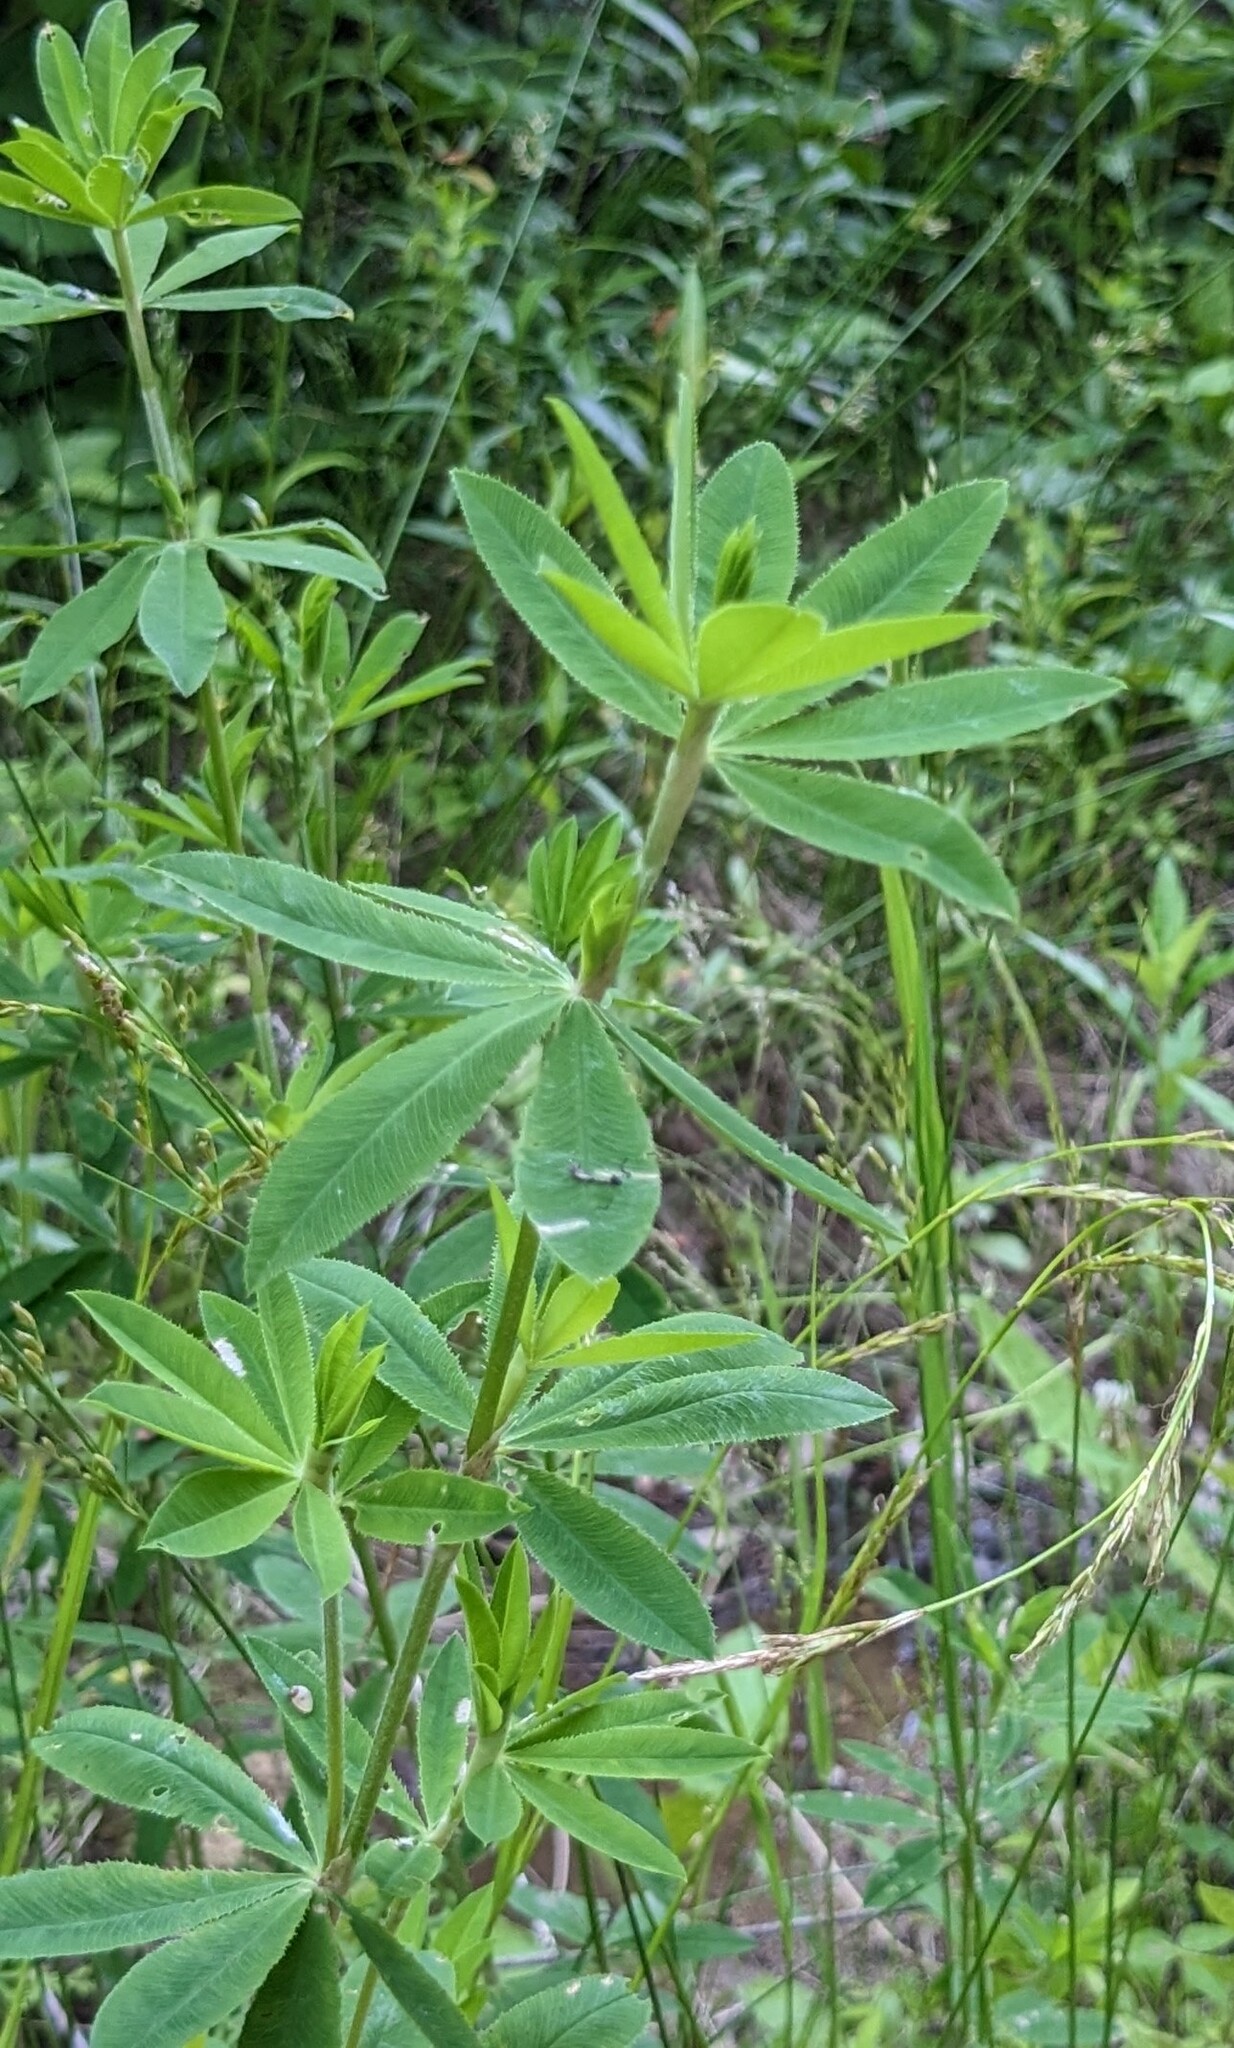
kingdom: Plantae
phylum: Tracheophyta
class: Magnoliopsida
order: Fabales
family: Fabaceae
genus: Trifolium
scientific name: Trifolium lupinaster
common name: Lupine clover
